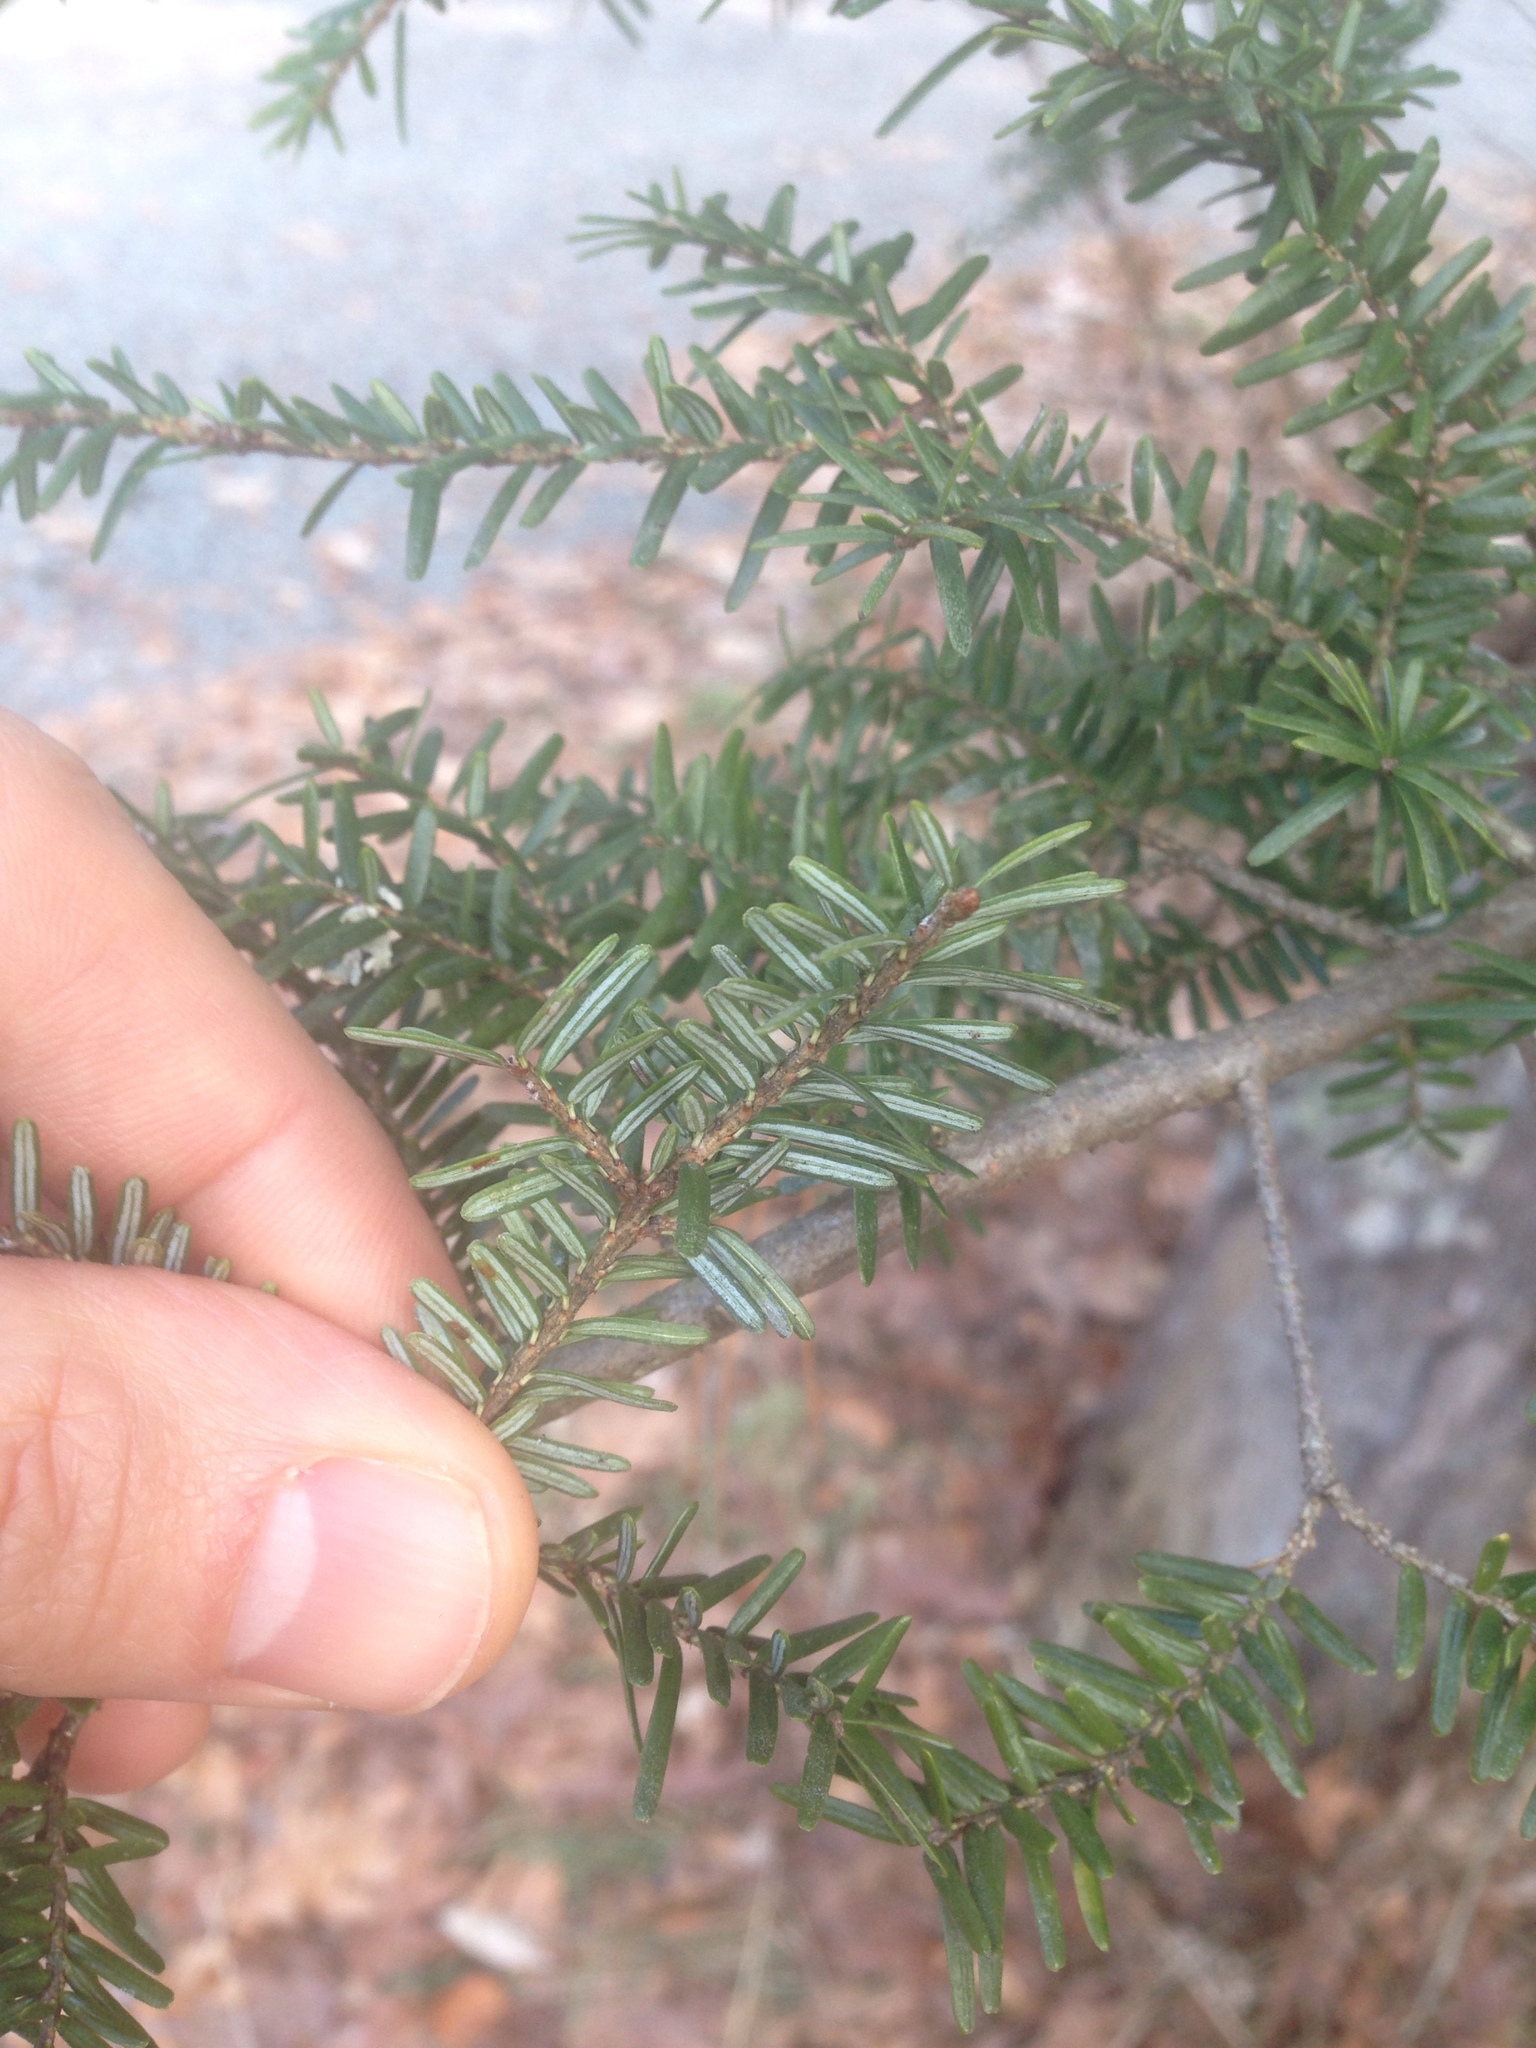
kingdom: Plantae
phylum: Tracheophyta
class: Pinopsida
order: Pinales
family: Pinaceae
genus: Tsuga
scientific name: Tsuga canadensis
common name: Eastern hemlock
